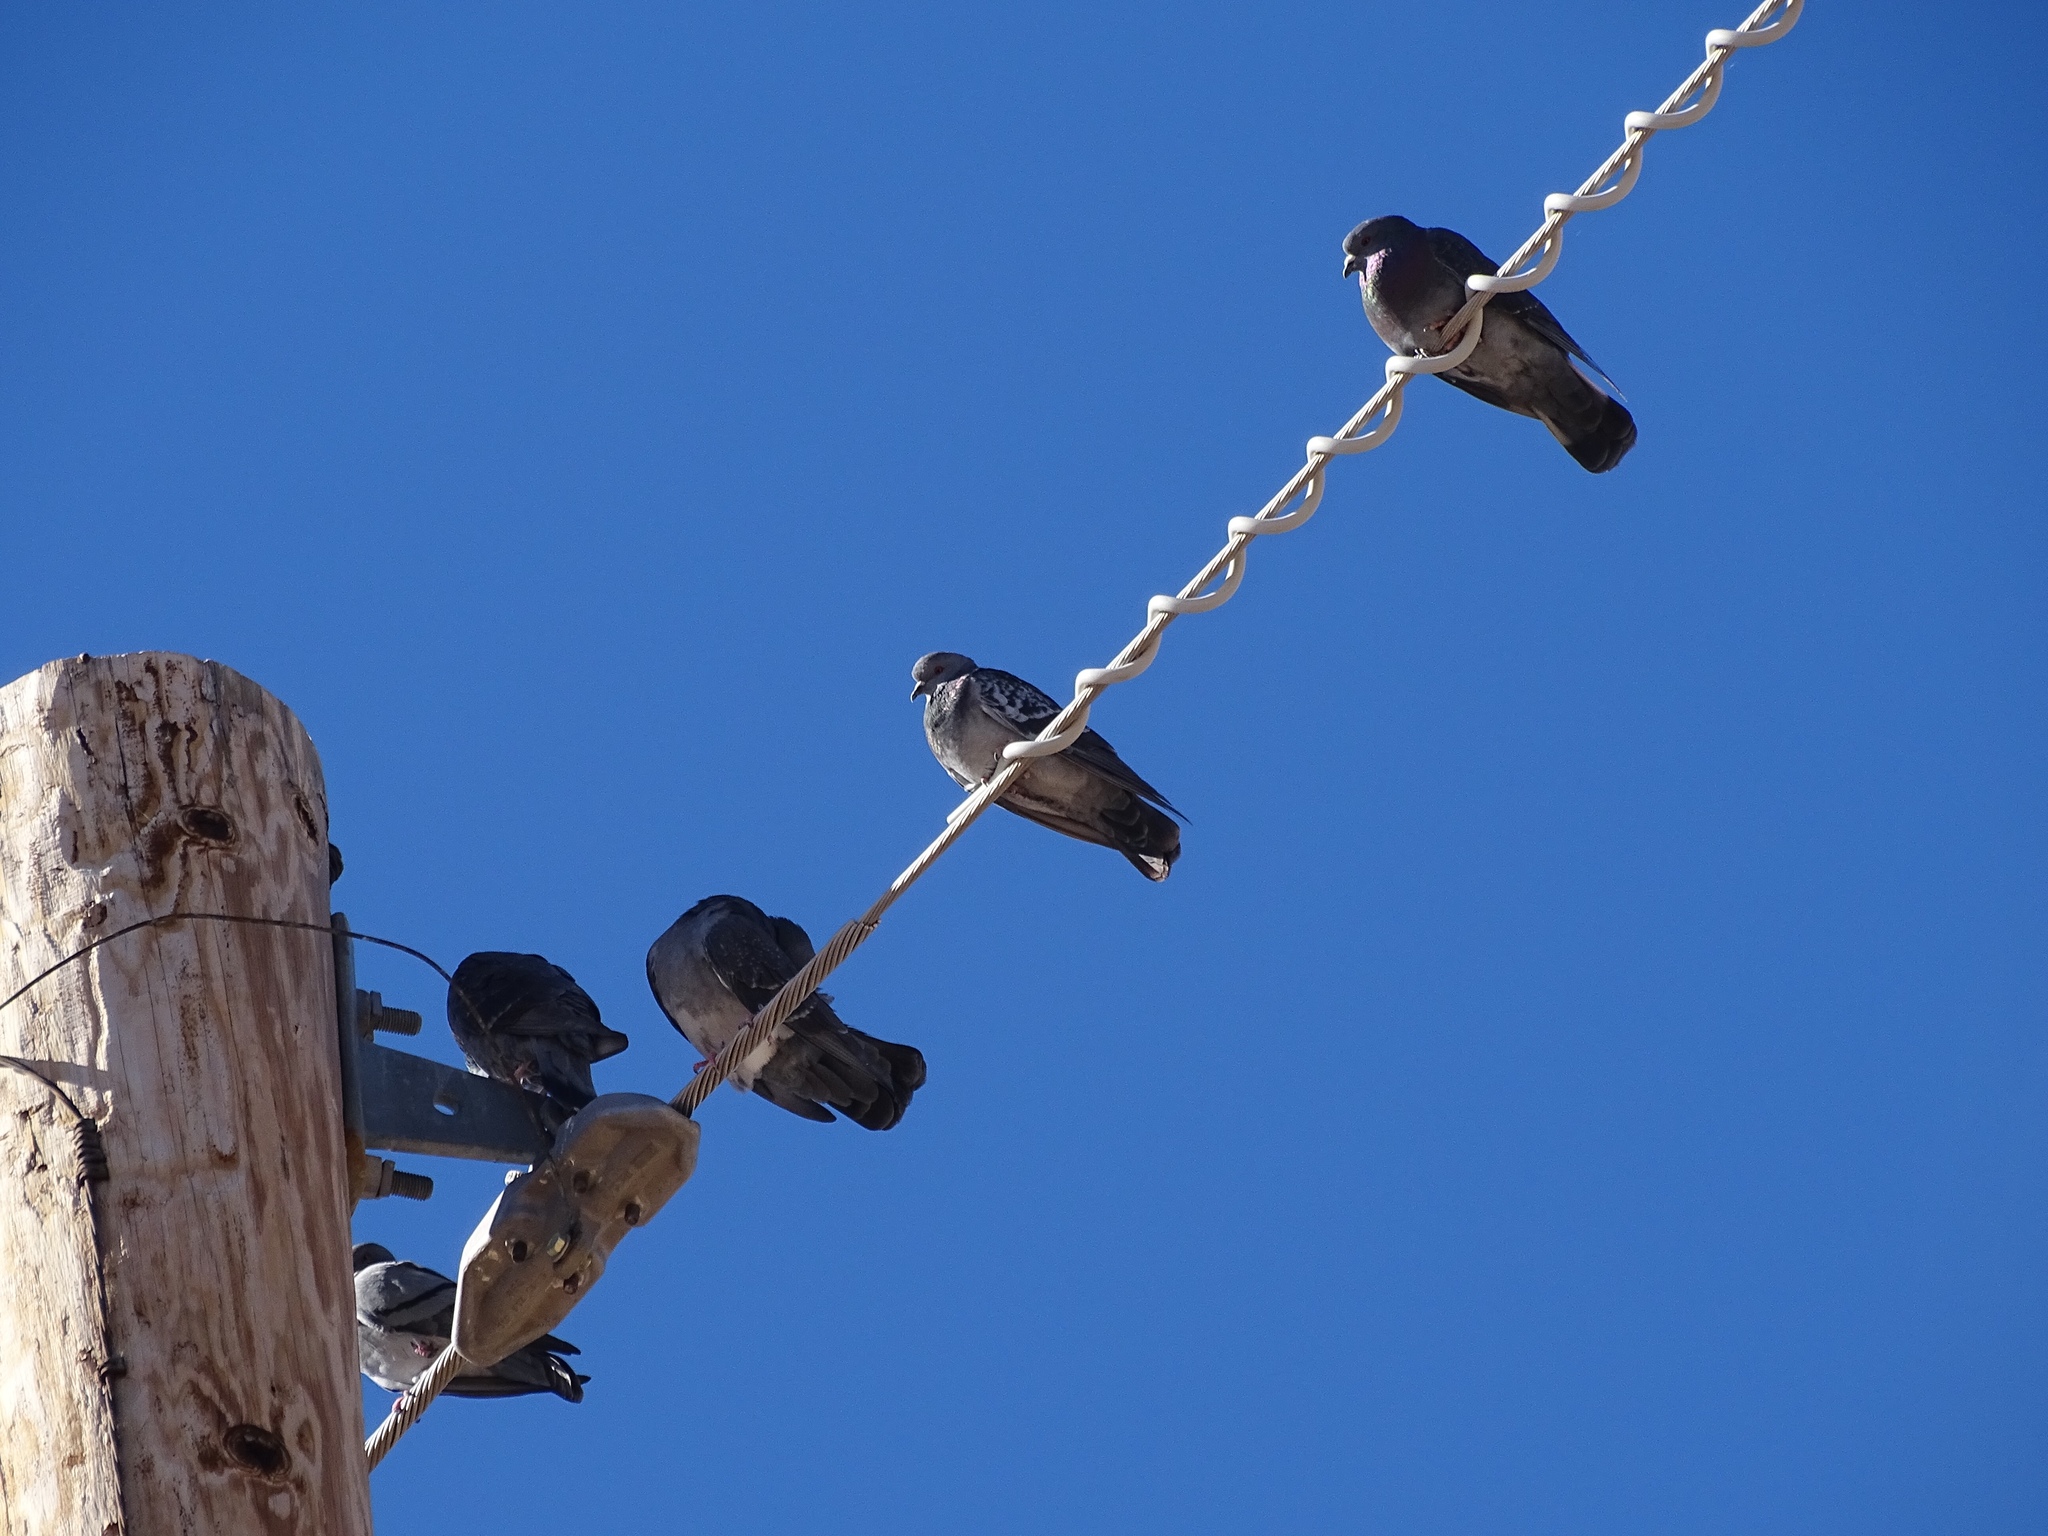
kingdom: Animalia
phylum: Chordata
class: Aves
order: Columbiformes
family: Columbidae
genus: Columba
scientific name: Columba livia
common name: Rock pigeon
